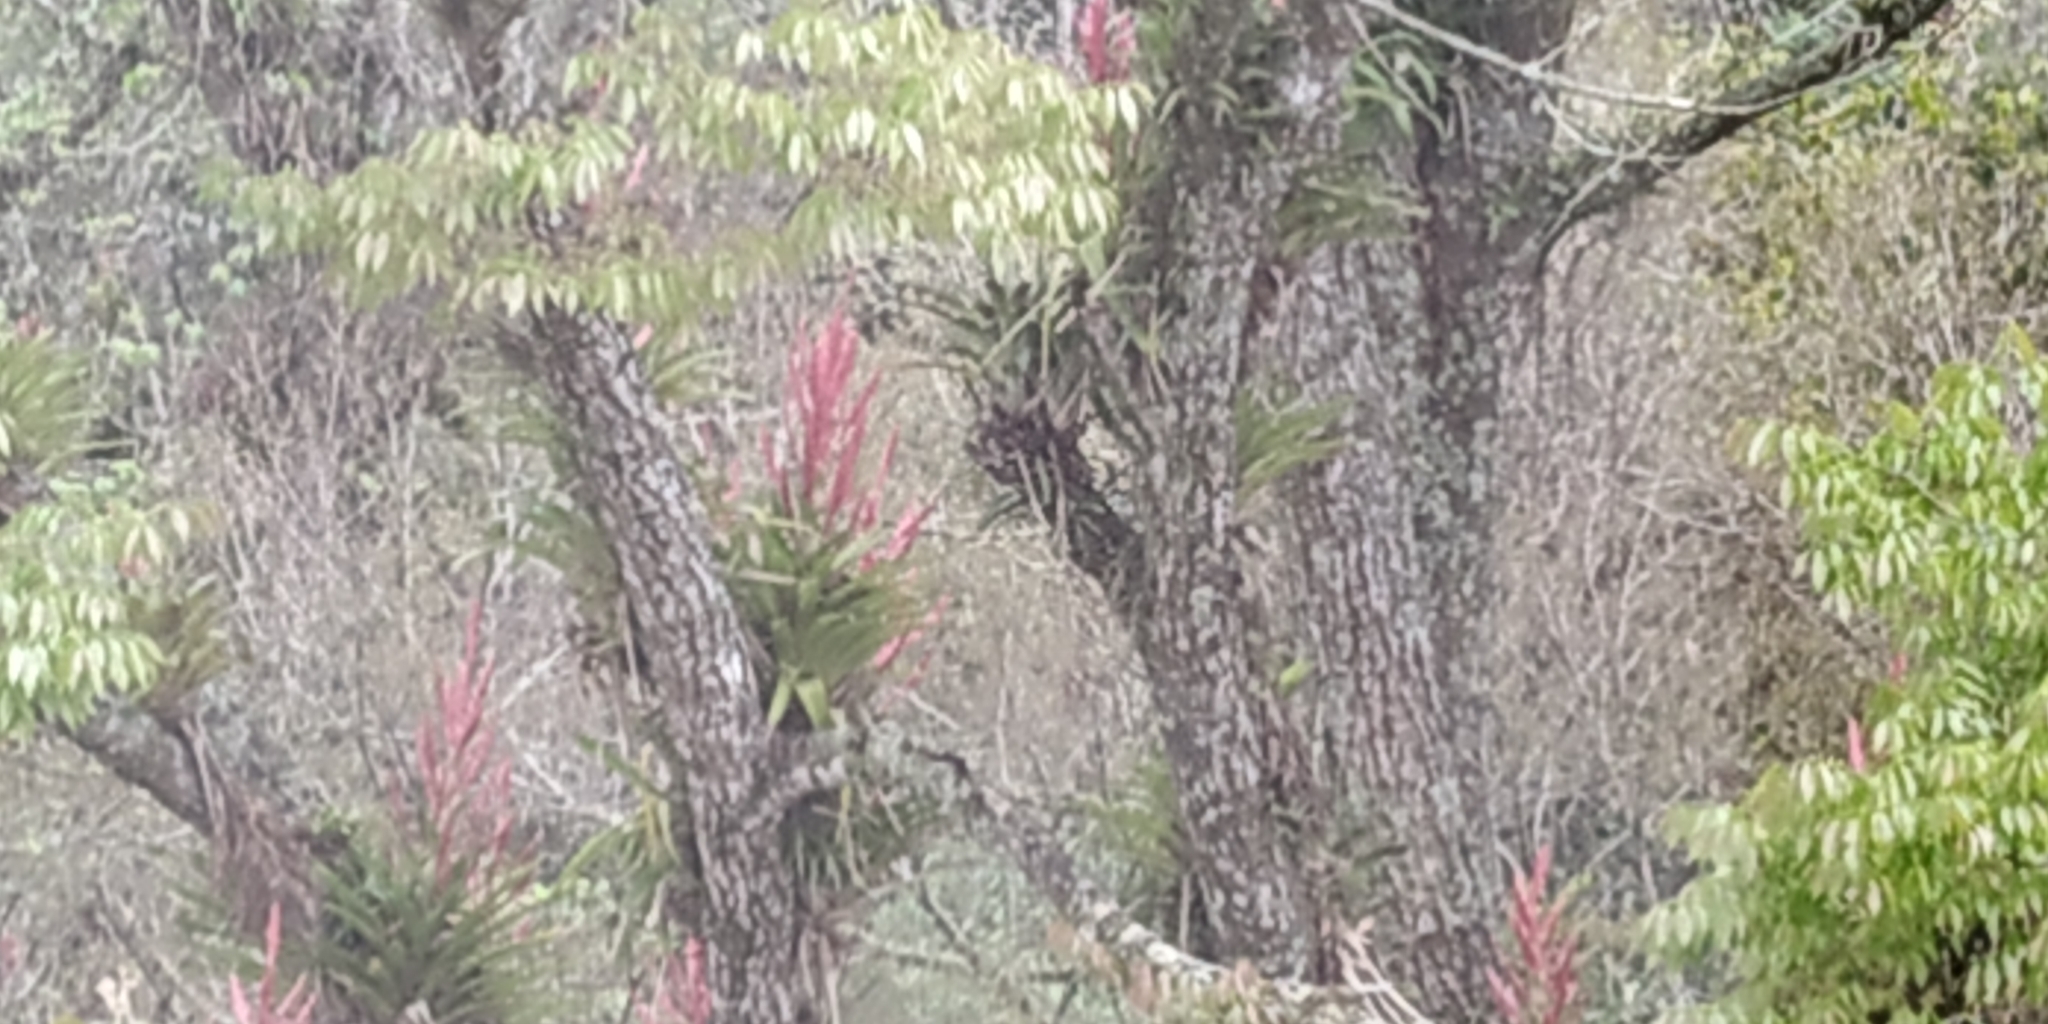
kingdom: Plantae
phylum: Tracheophyta
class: Liliopsida
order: Poales
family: Bromeliaceae
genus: Tillandsia
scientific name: Tillandsia deppeana
